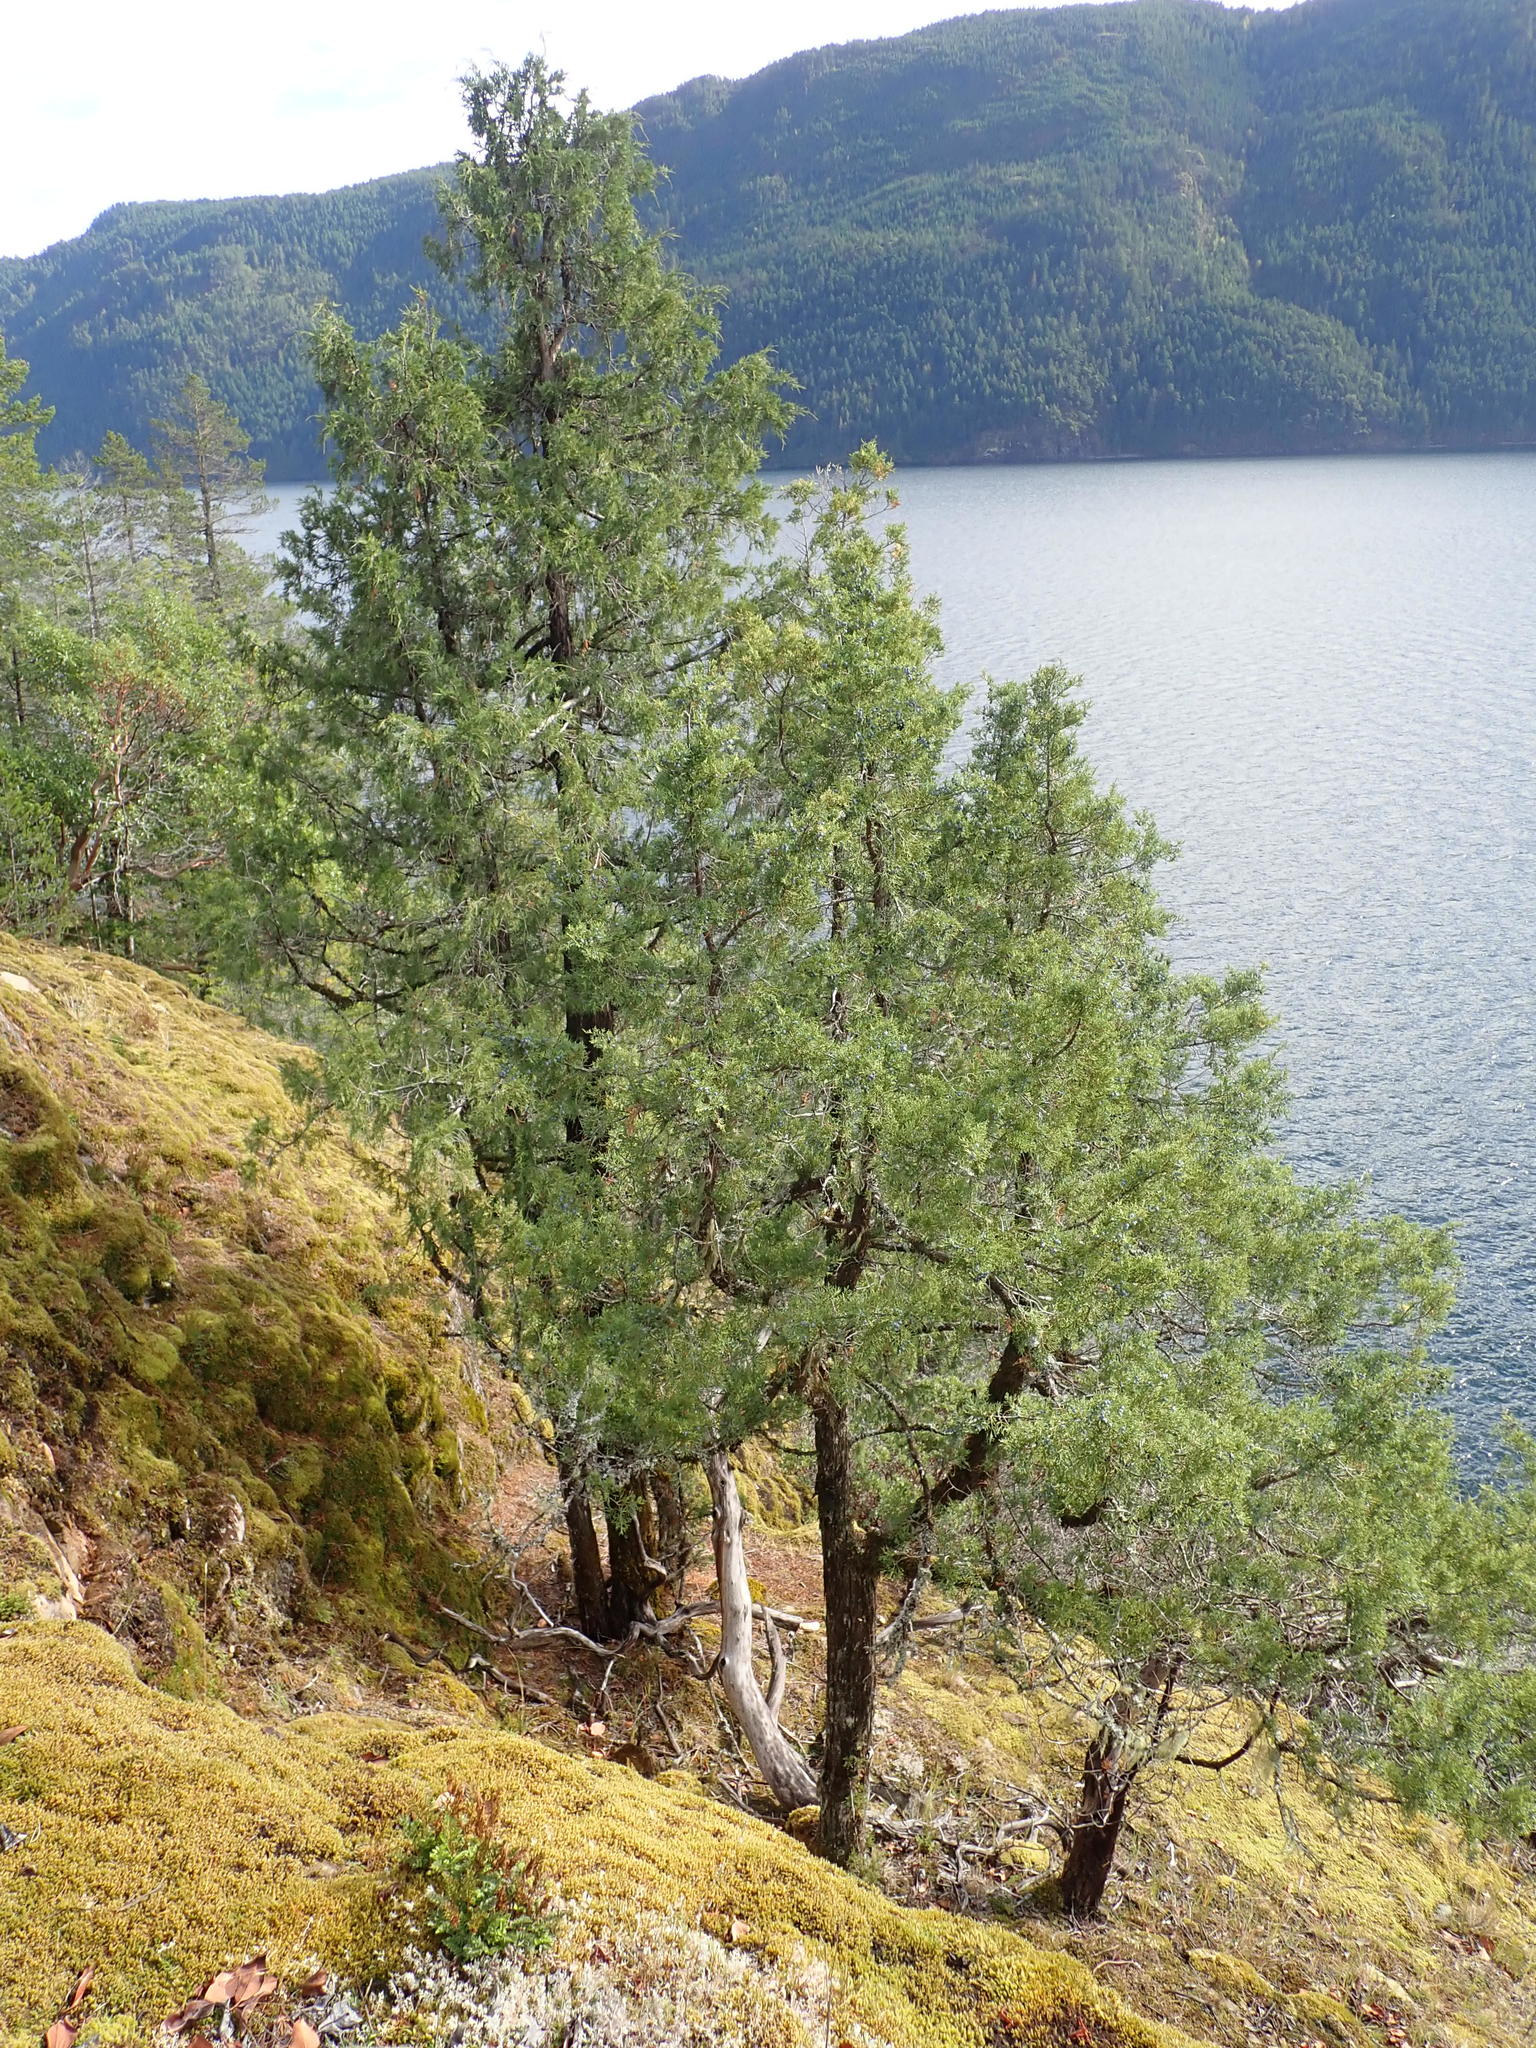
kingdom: Plantae
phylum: Tracheophyta
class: Pinopsida
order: Pinales
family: Cupressaceae
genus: Juniperus
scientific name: Juniperus scopulorum
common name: Rocky mountain juniper
